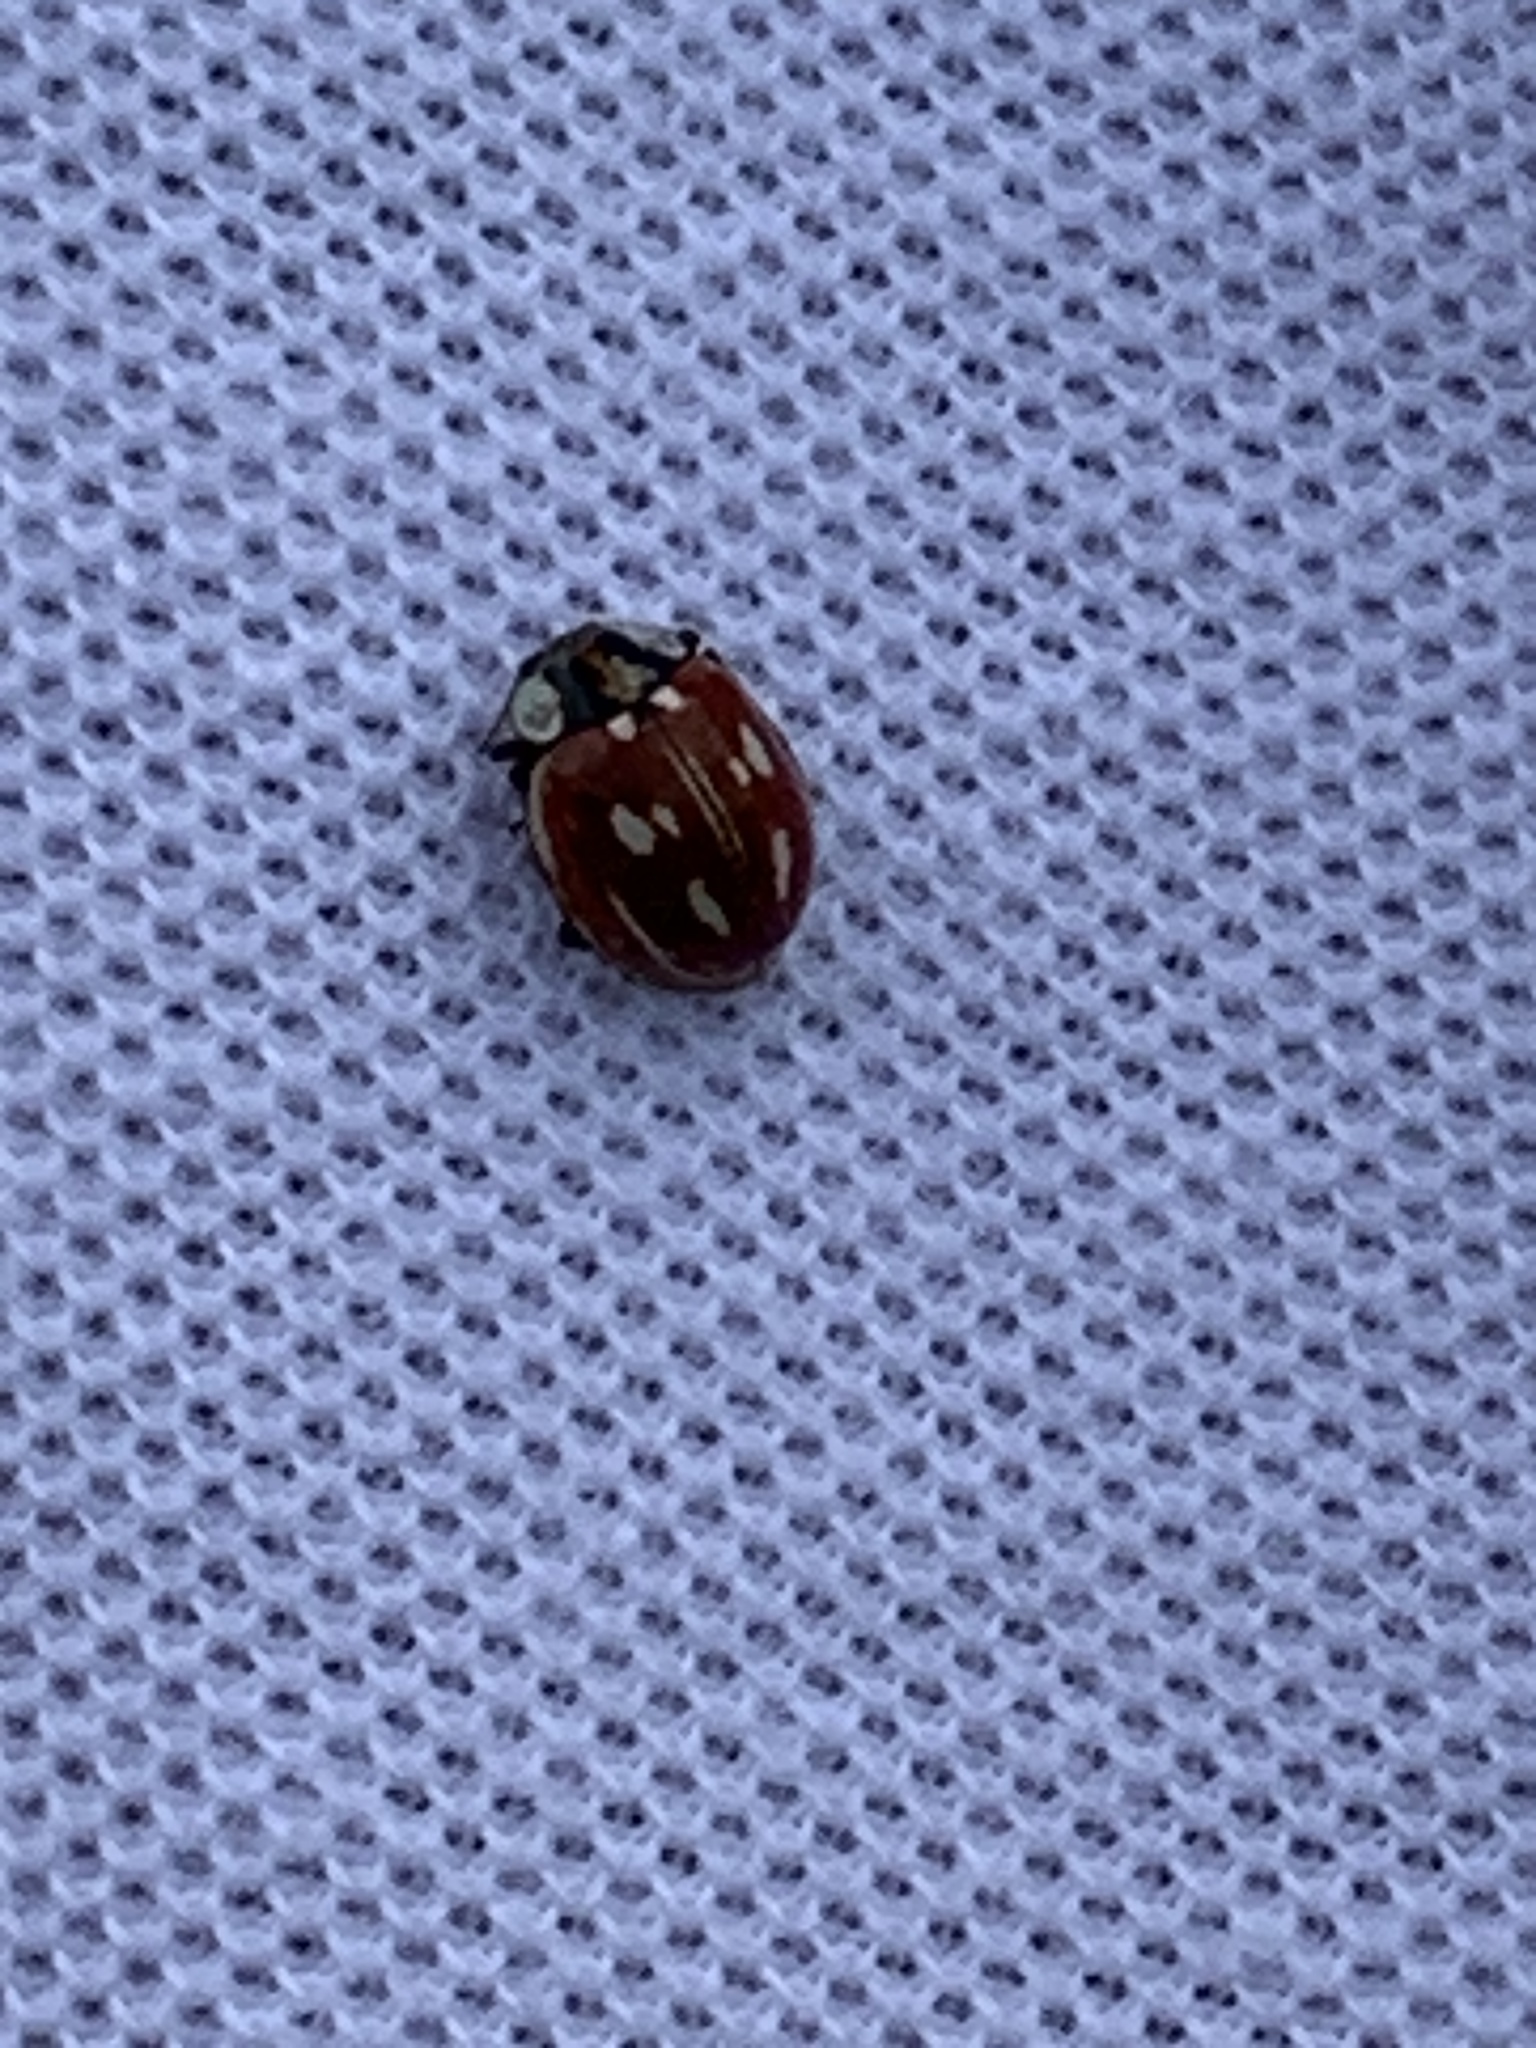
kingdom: Animalia
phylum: Arthropoda
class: Insecta
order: Coleoptera
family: Coccinellidae
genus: Myzia
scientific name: Myzia oblongoguttata
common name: Striped ladybird
